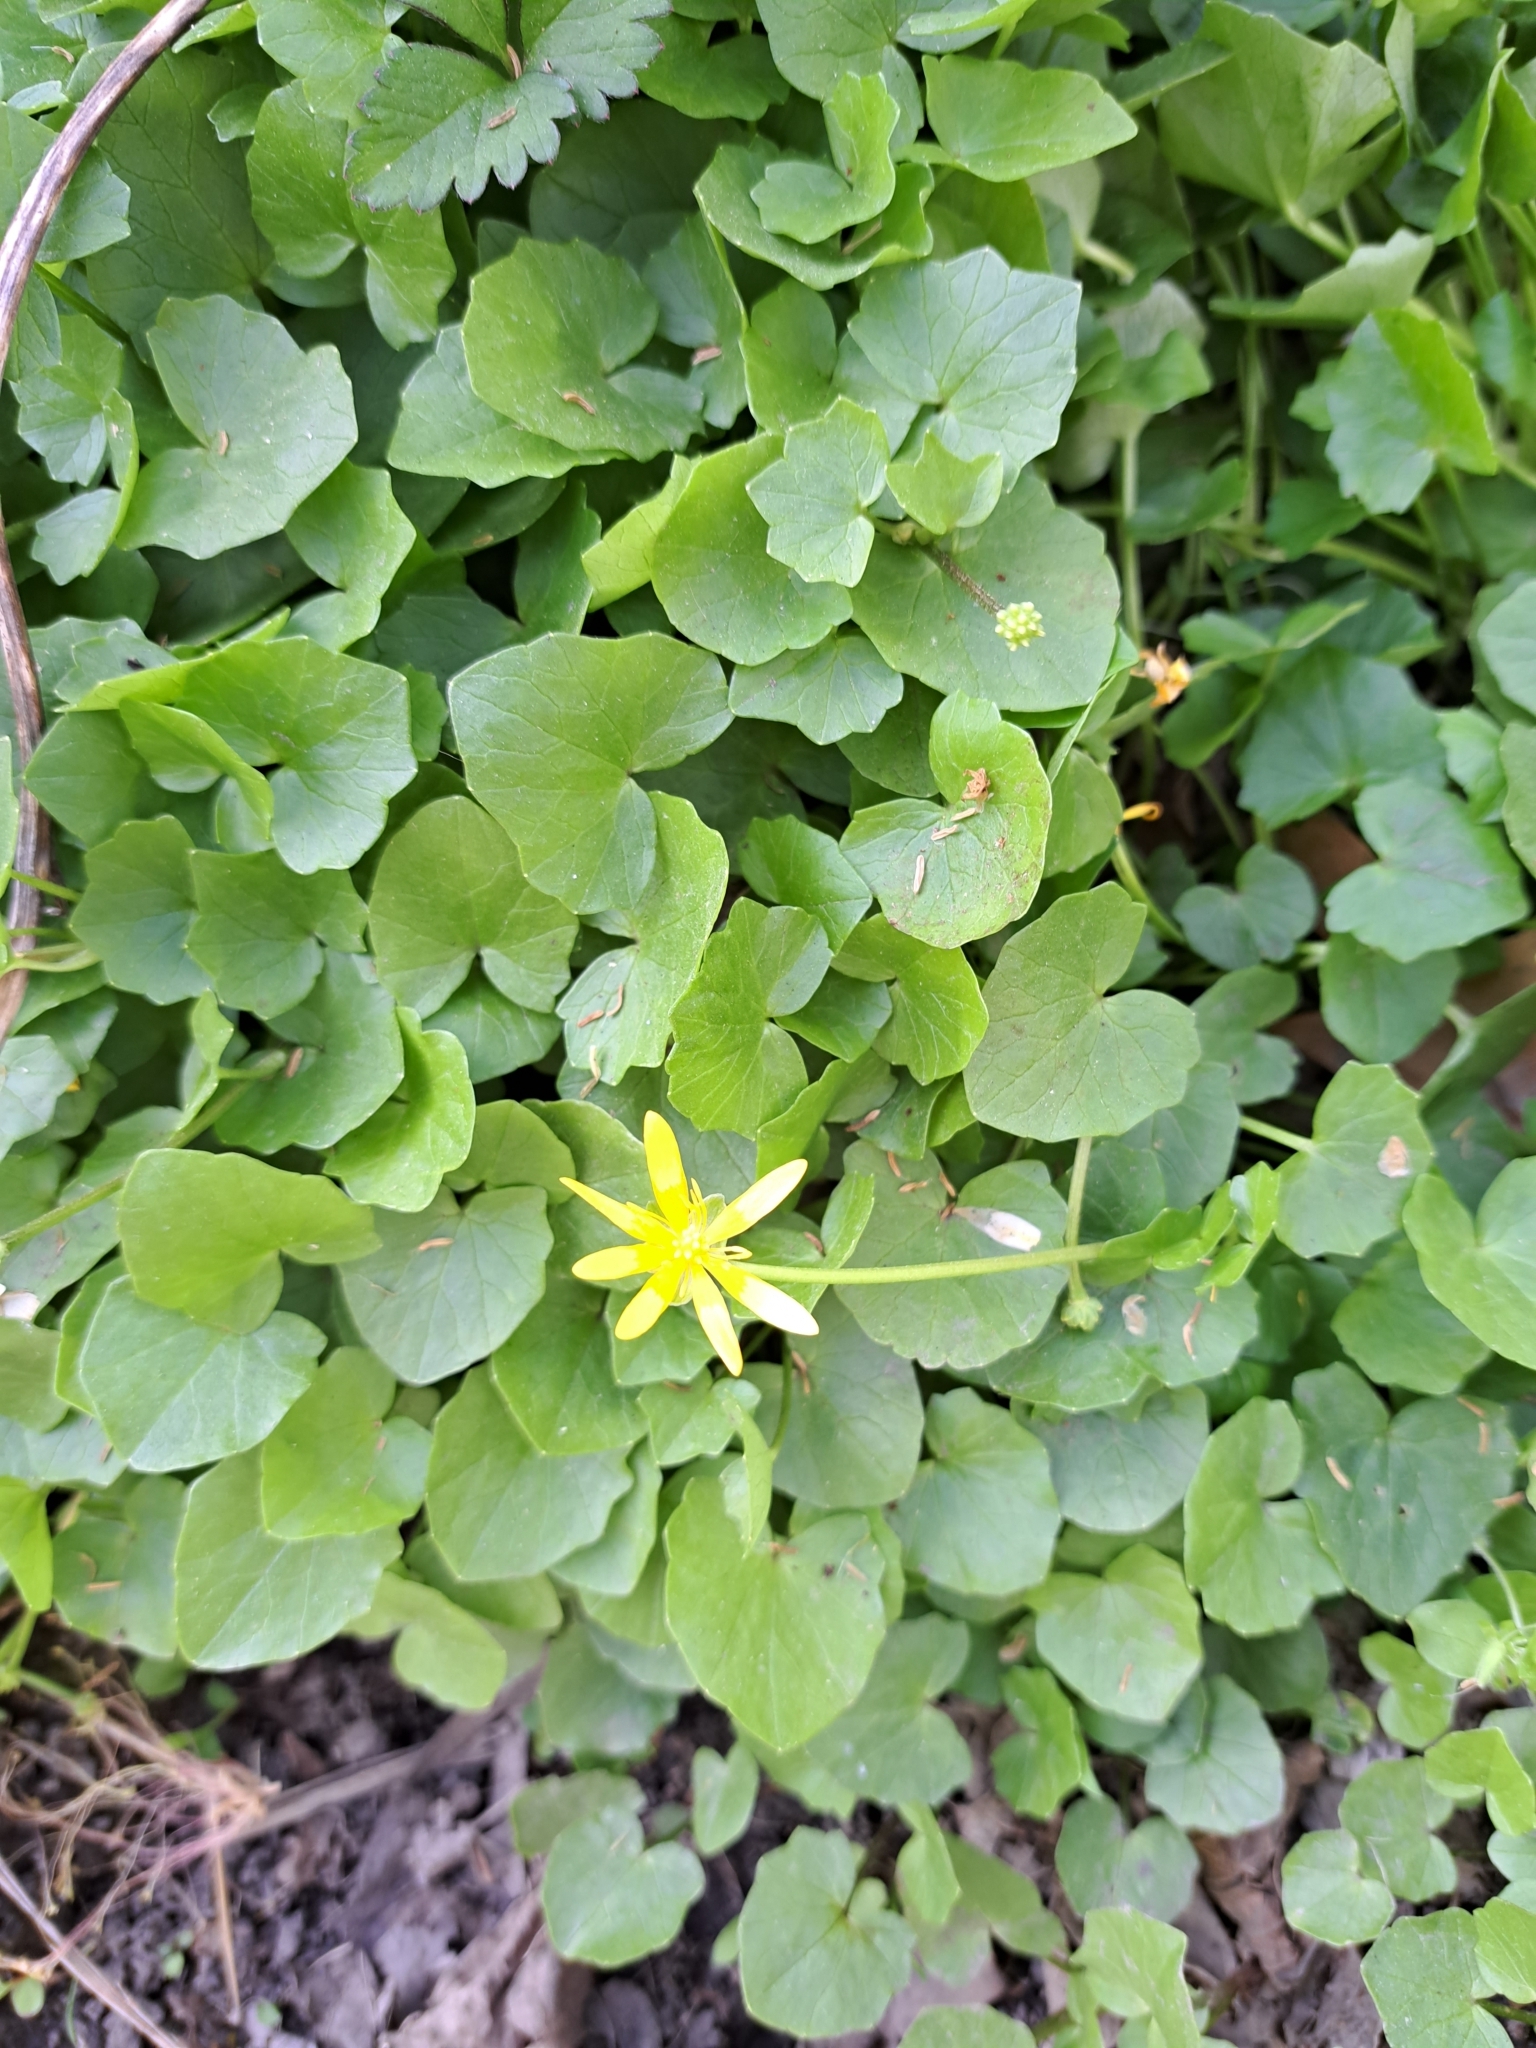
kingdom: Plantae
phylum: Tracheophyta
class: Magnoliopsida
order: Ranunculales
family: Ranunculaceae
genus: Ficaria
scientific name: Ficaria verna
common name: Lesser celandine
